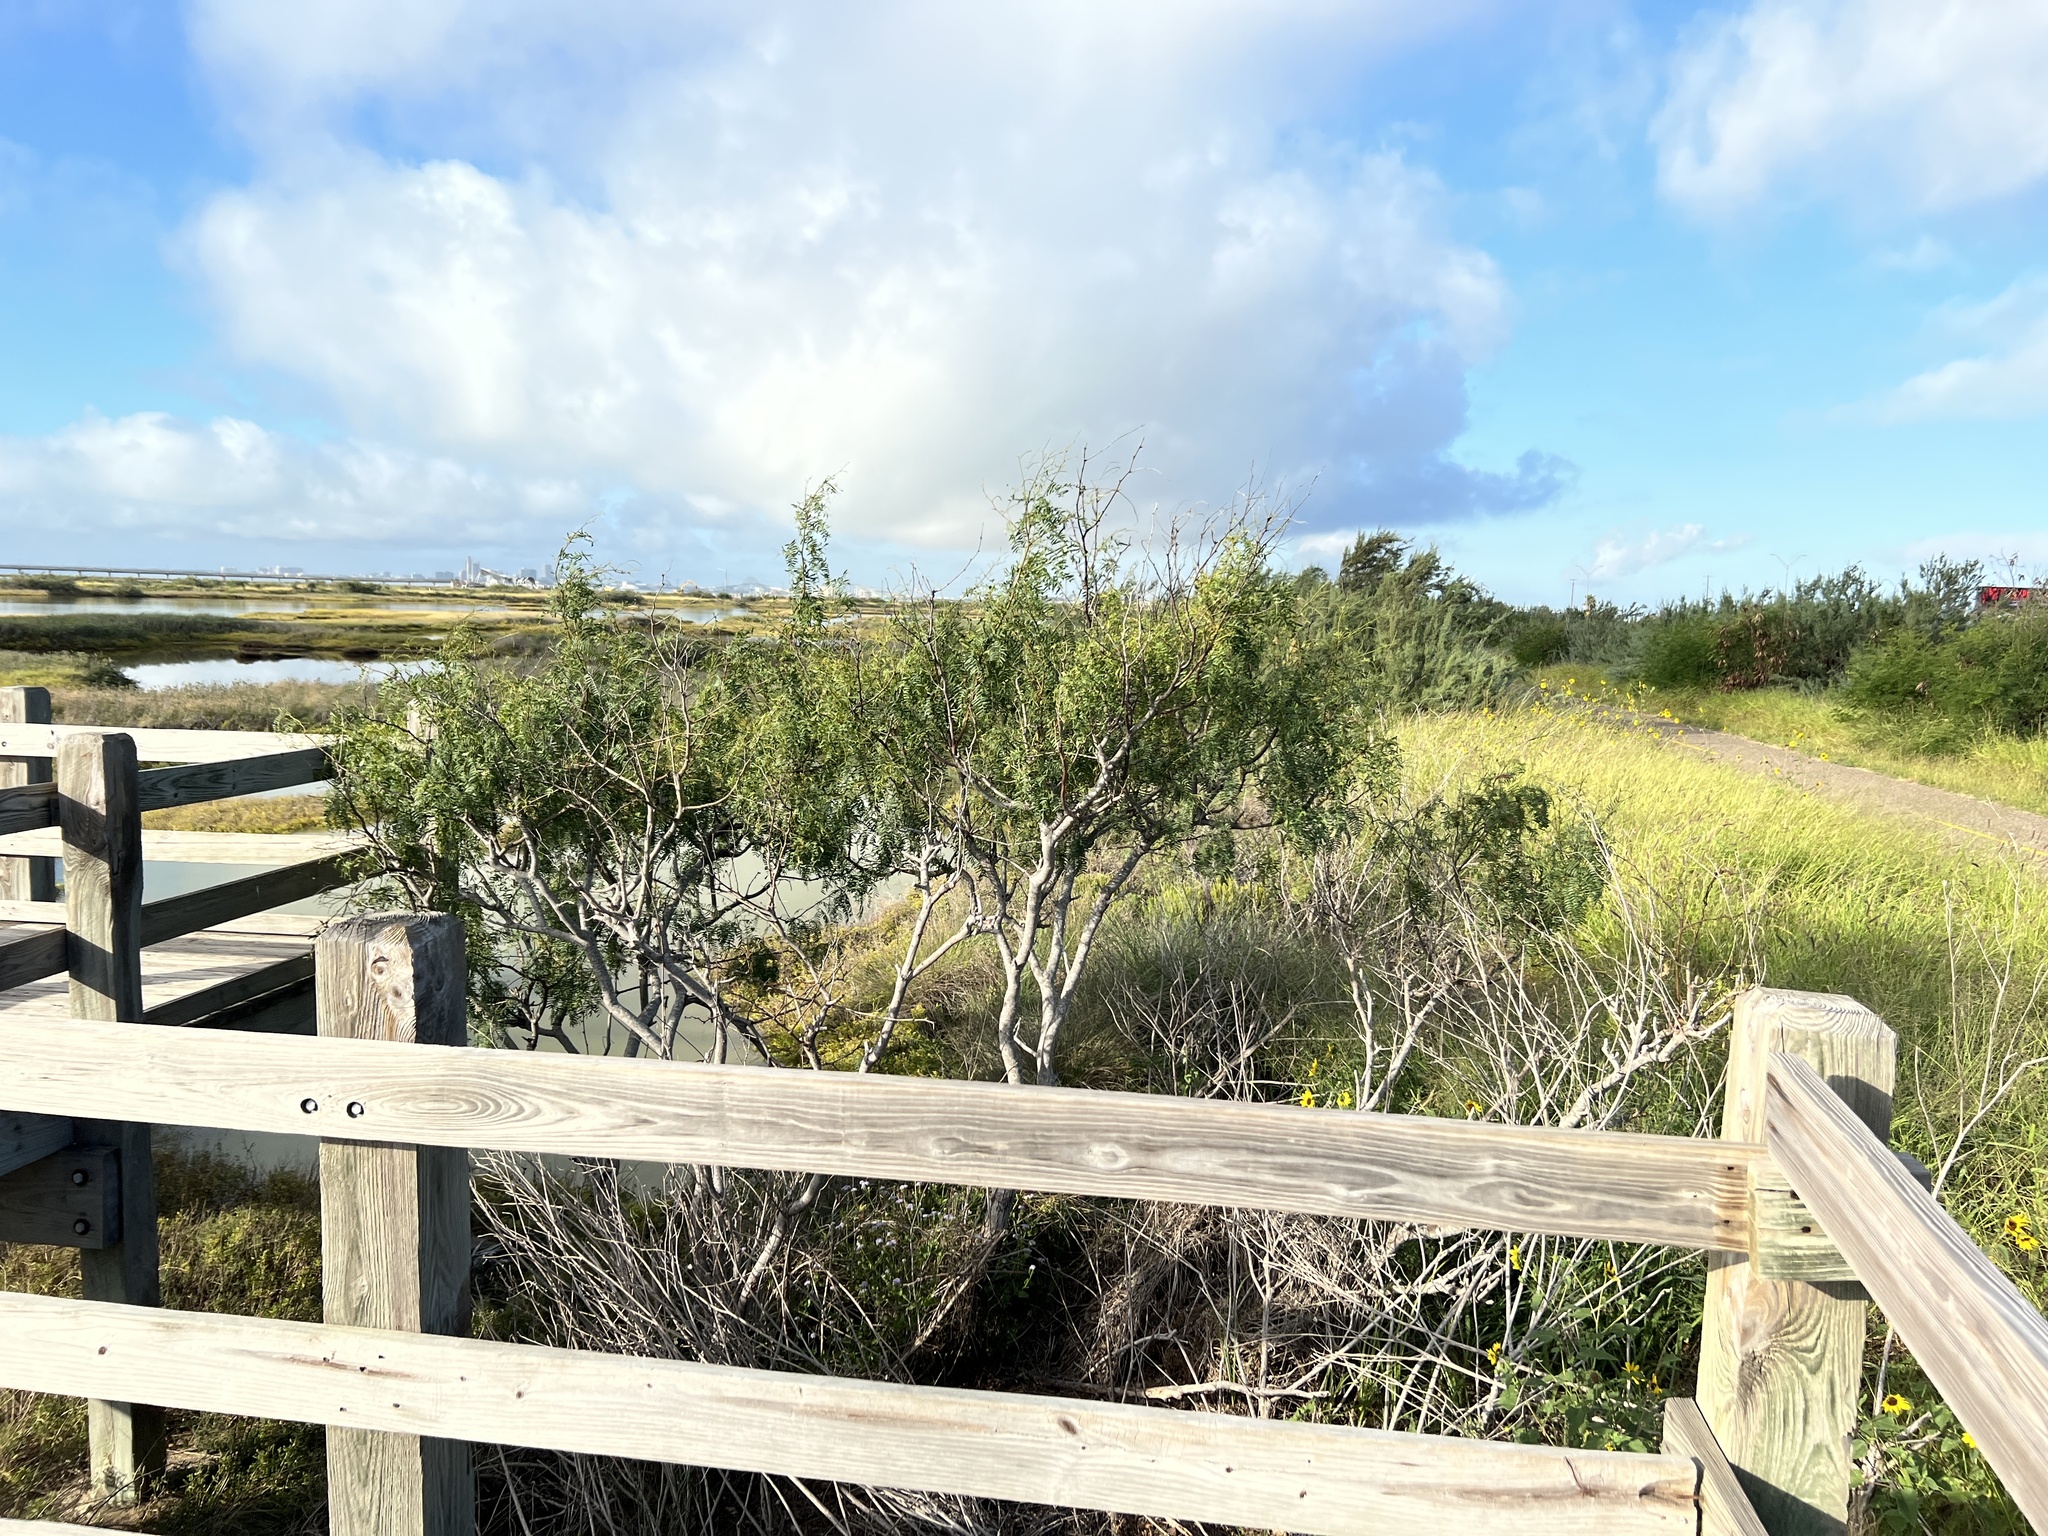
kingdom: Plantae
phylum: Tracheophyta
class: Magnoliopsida
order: Fabales
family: Fabaceae
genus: Prosopis
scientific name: Prosopis glandulosa
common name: Honey mesquite
